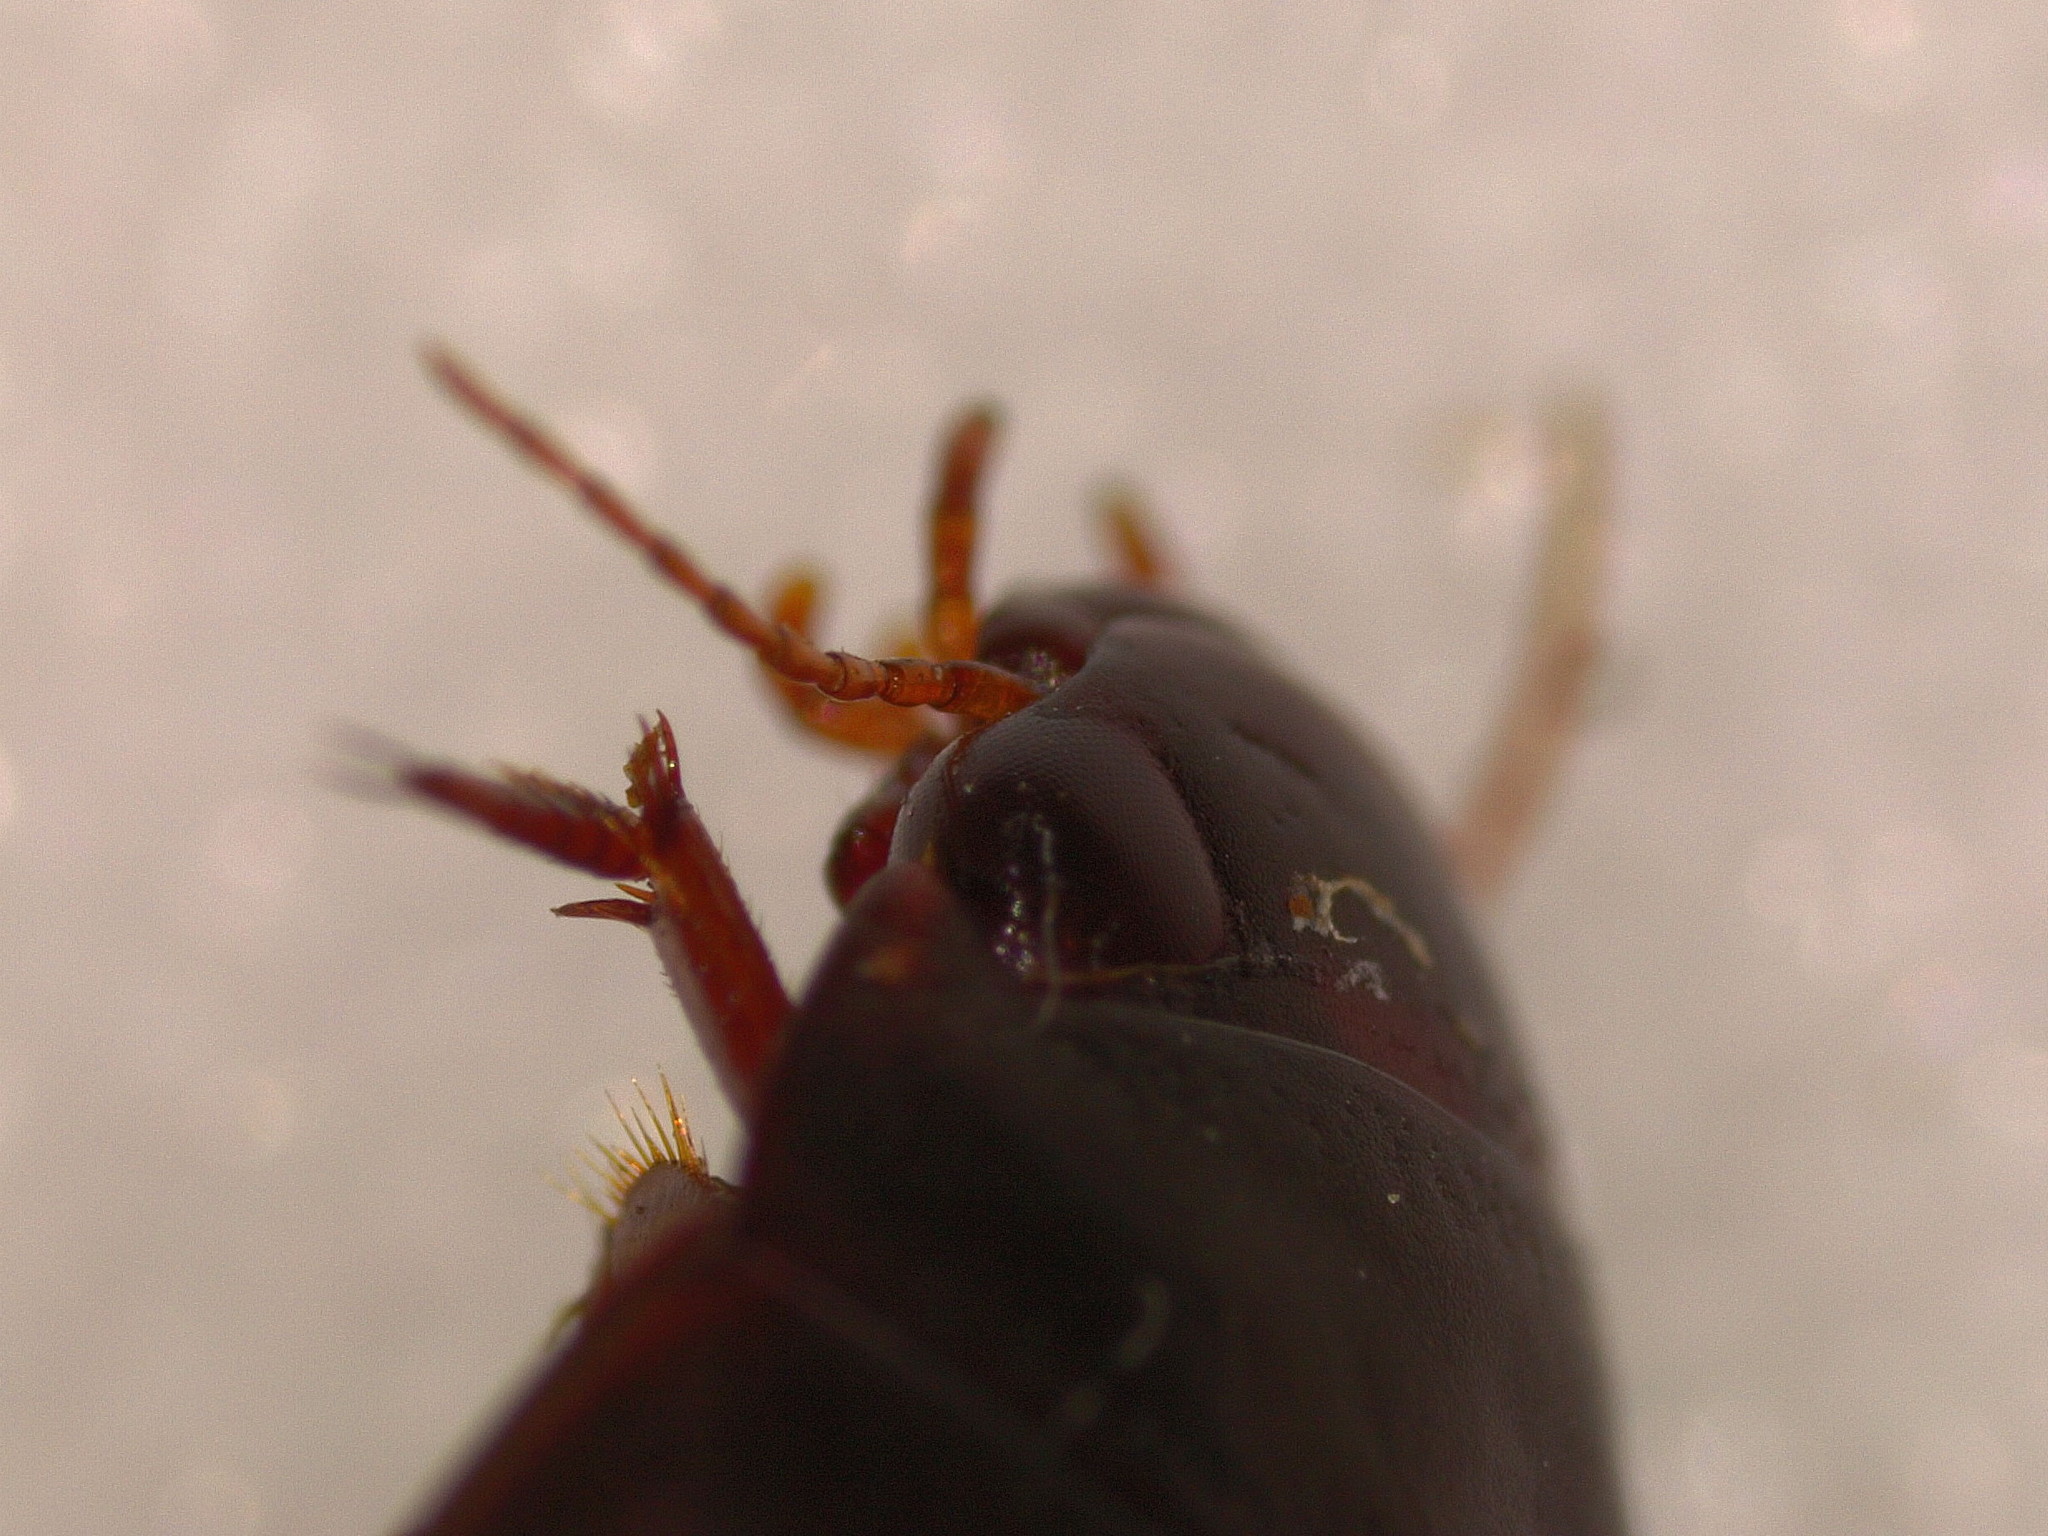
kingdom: Animalia
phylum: Arthropoda
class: Insecta
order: Coleoptera
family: Dytiscidae
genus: Ilybius
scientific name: Ilybius quadriguttatus
